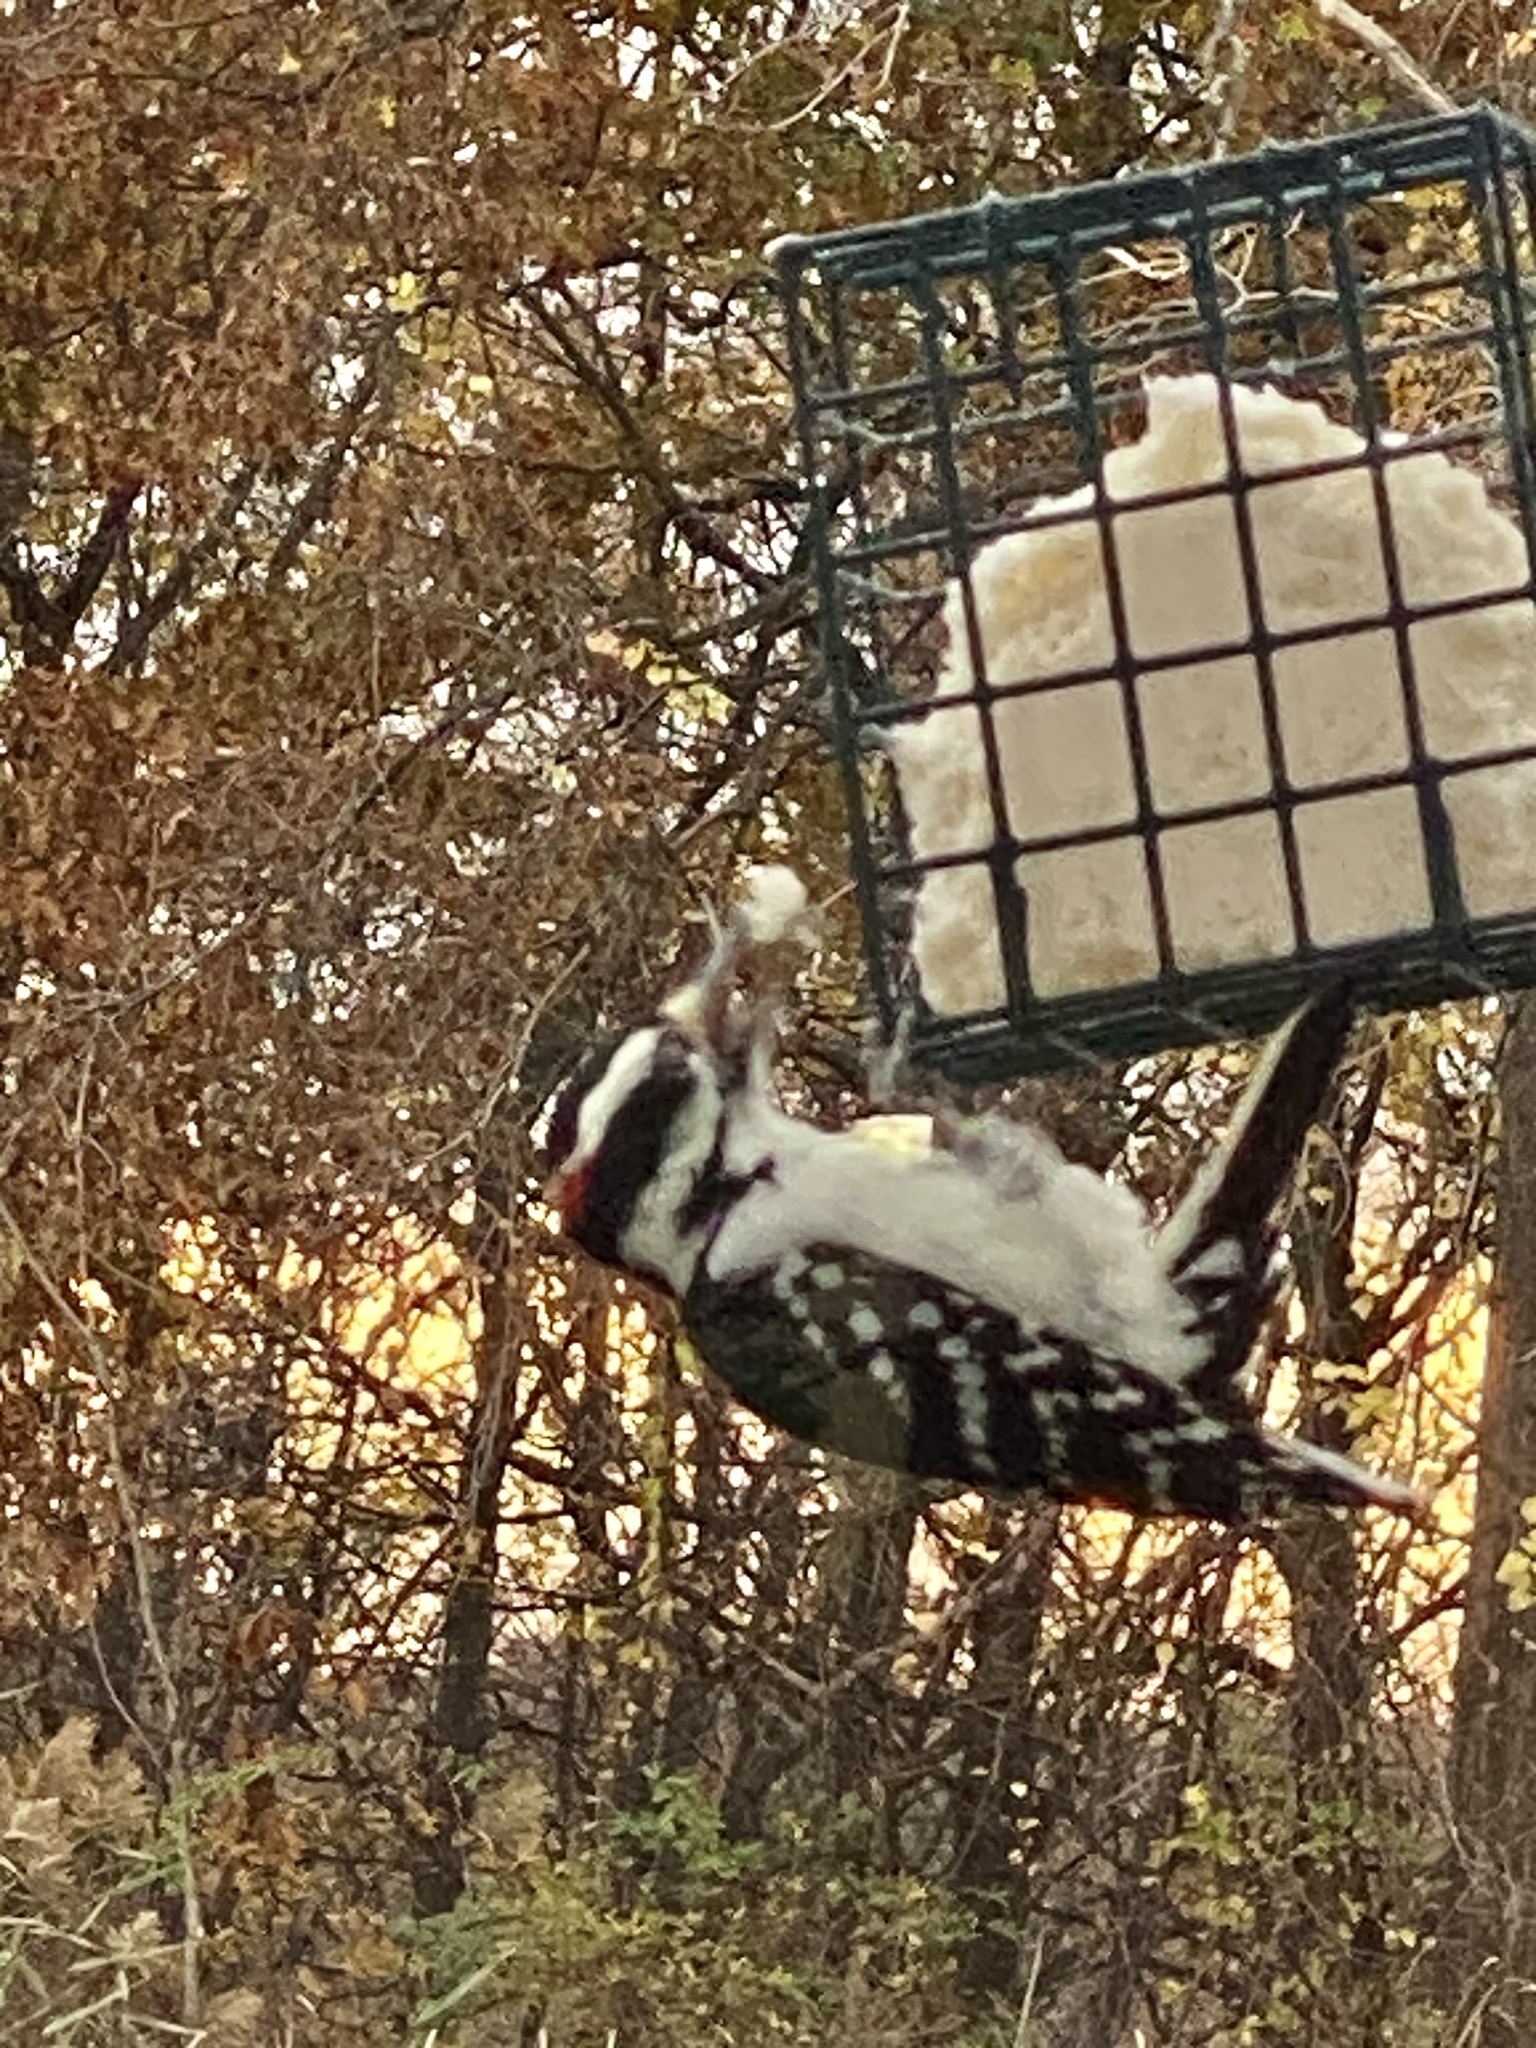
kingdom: Animalia
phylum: Chordata
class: Aves
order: Piciformes
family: Picidae
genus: Leuconotopicus
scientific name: Leuconotopicus villosus
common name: Hairy woodpecker
